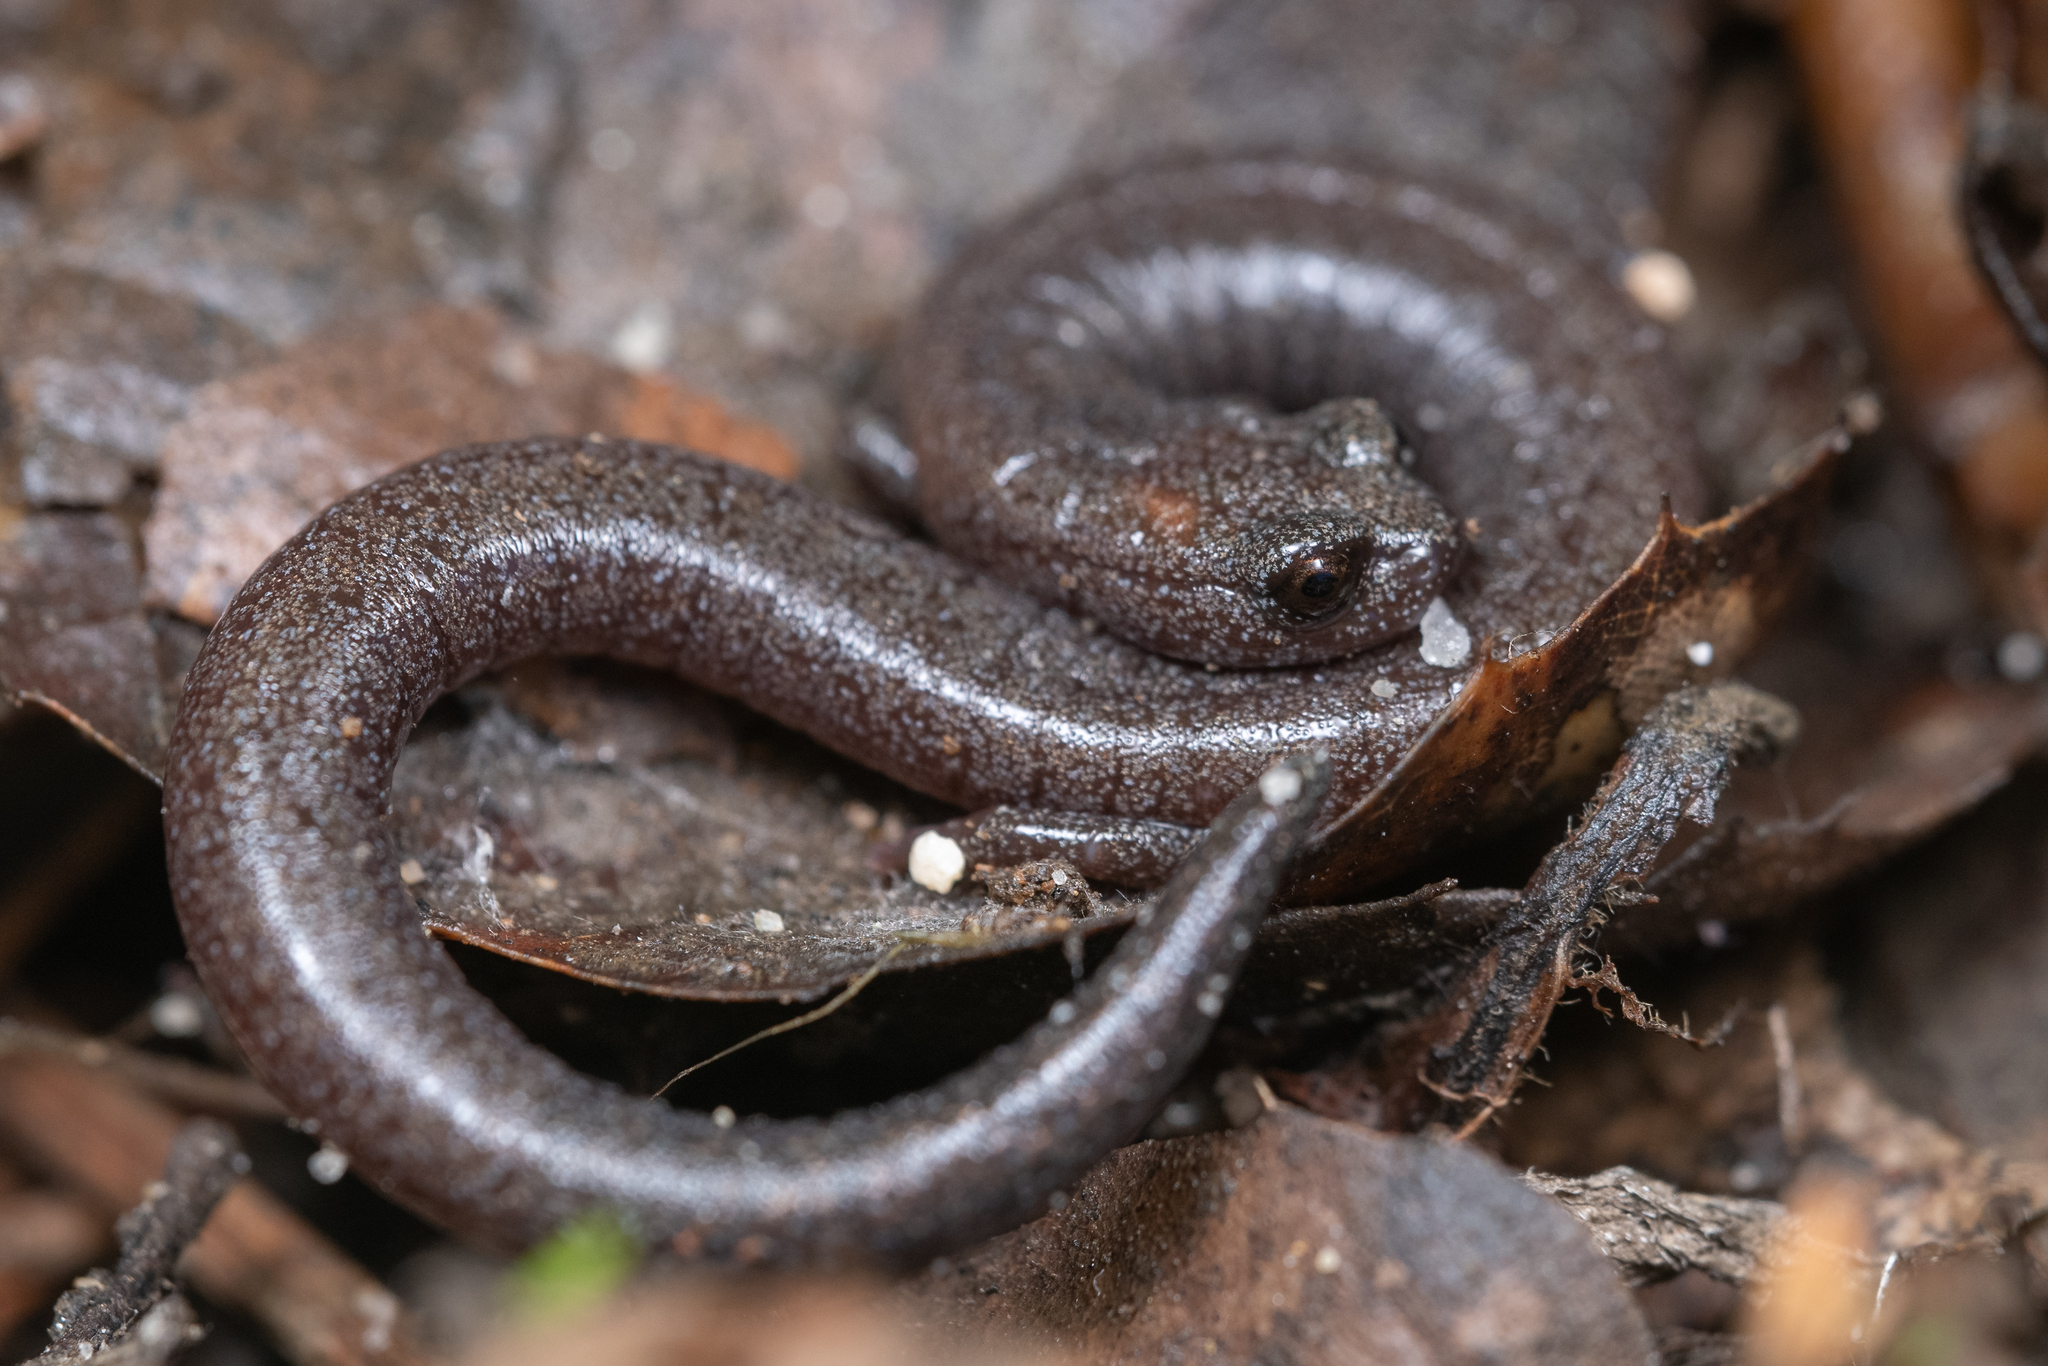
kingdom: Animalia
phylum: Chordata
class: Amphibia
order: Caudata
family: Plethodontidae
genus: Batrachoseps
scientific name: Batrachoseps major
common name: Garden slender salamander
